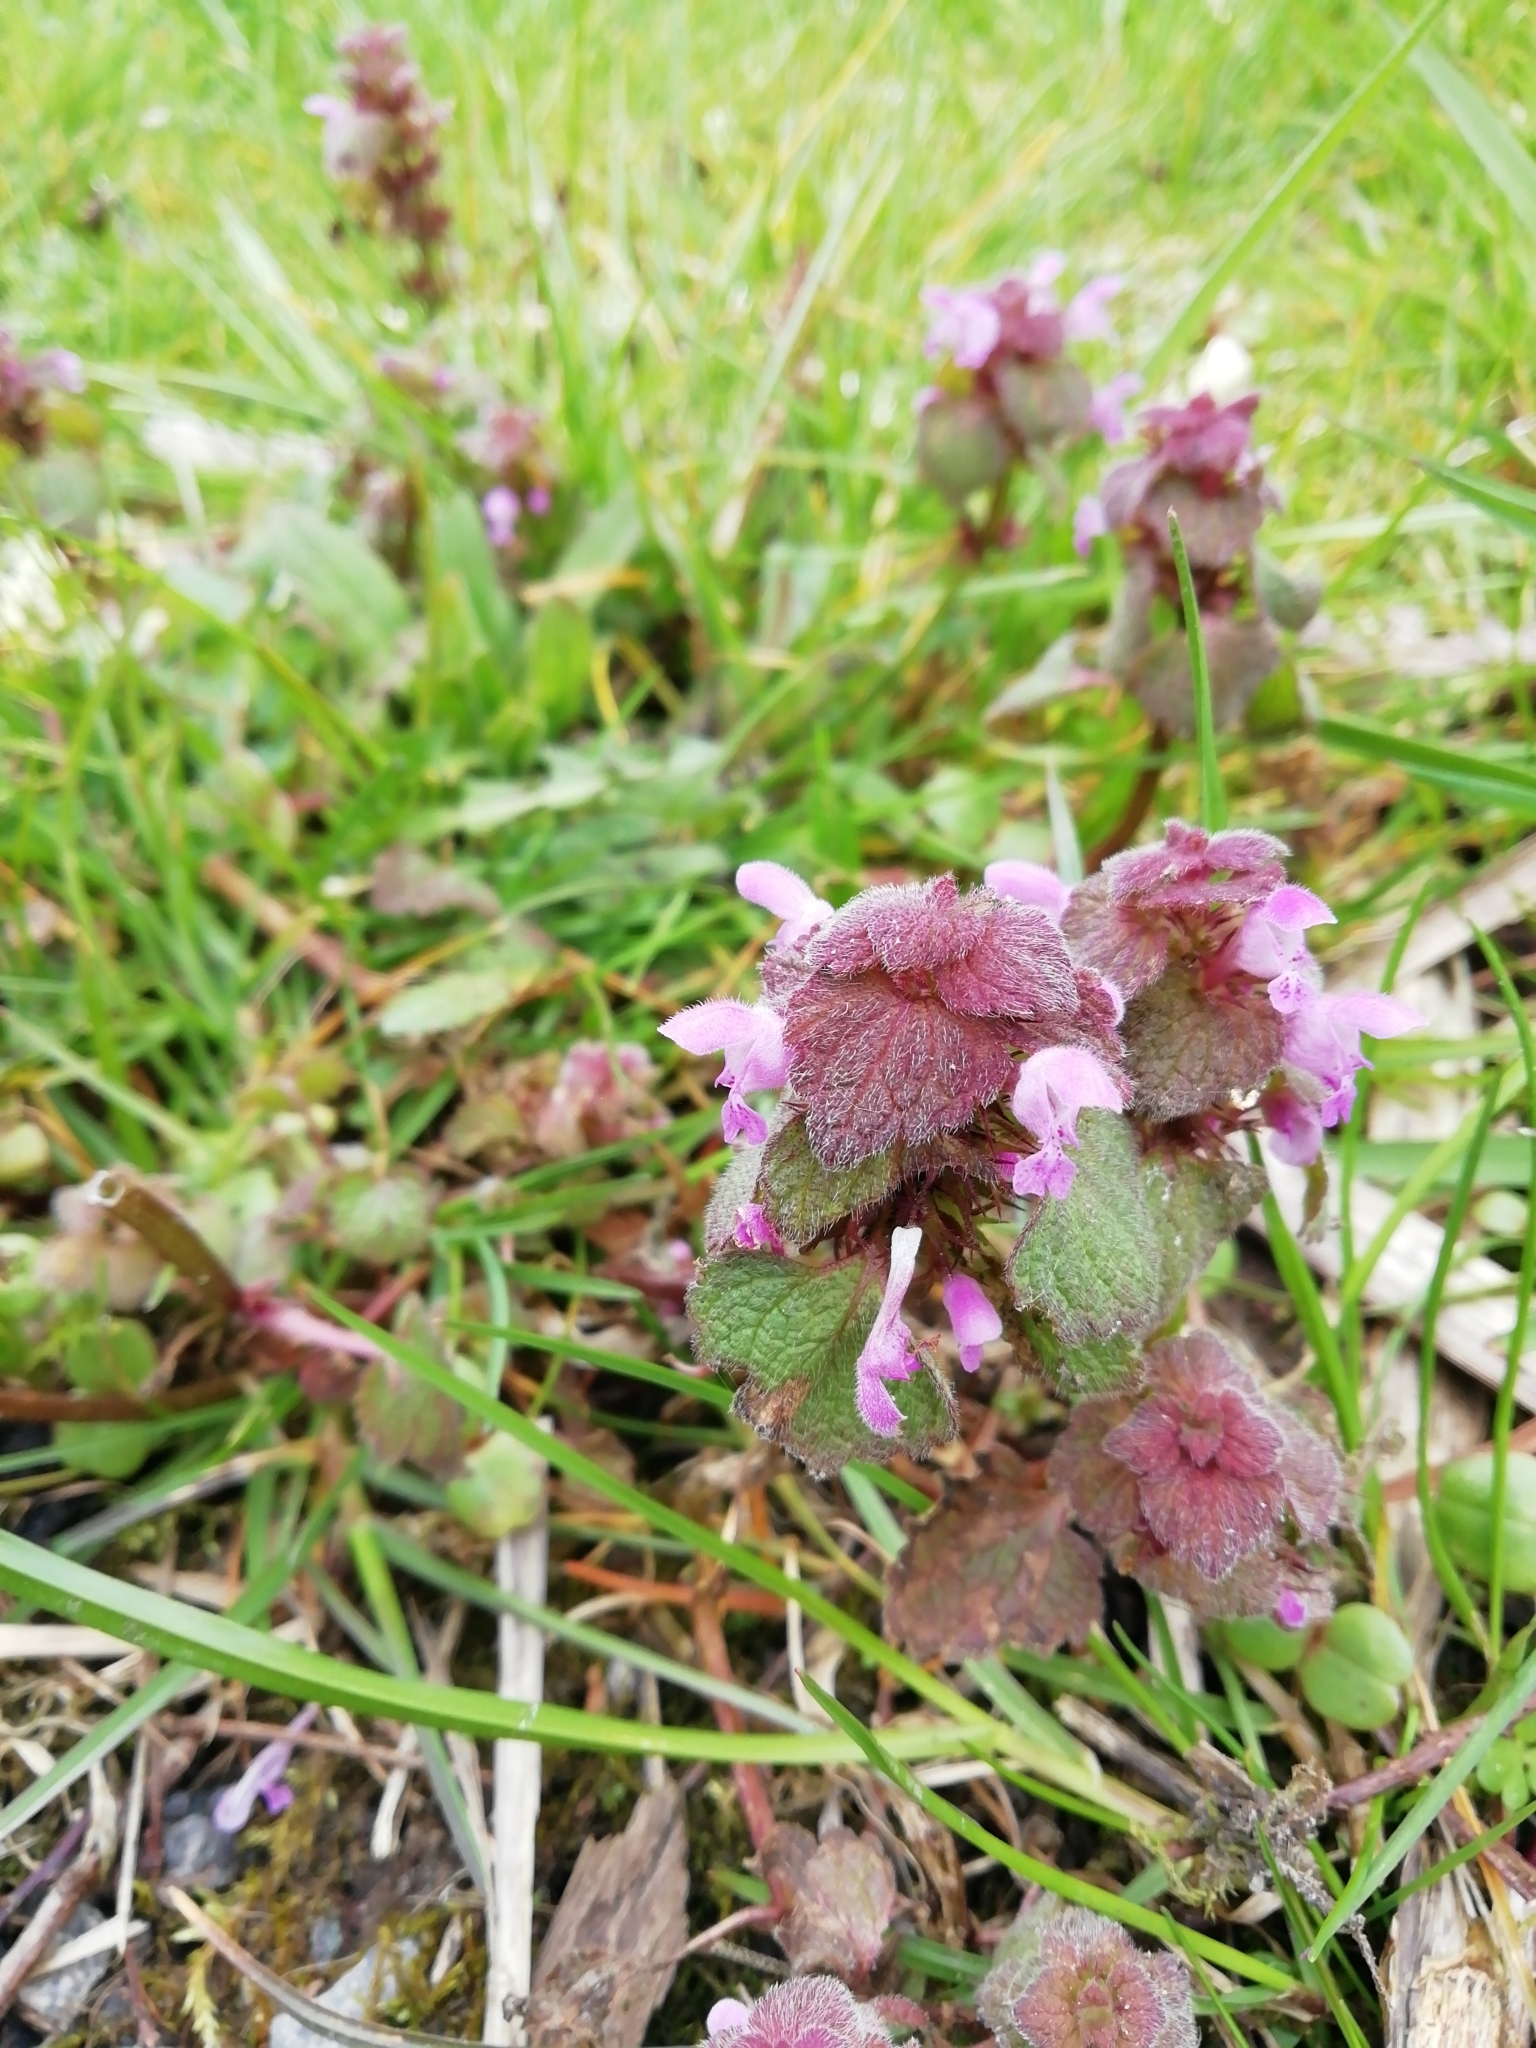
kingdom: Plantae
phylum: Tracheophyta
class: Magnoliopsida
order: Lamiales
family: Lamiaceae
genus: Lamium
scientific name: Lamium purpureum
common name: Red dead-nettle
